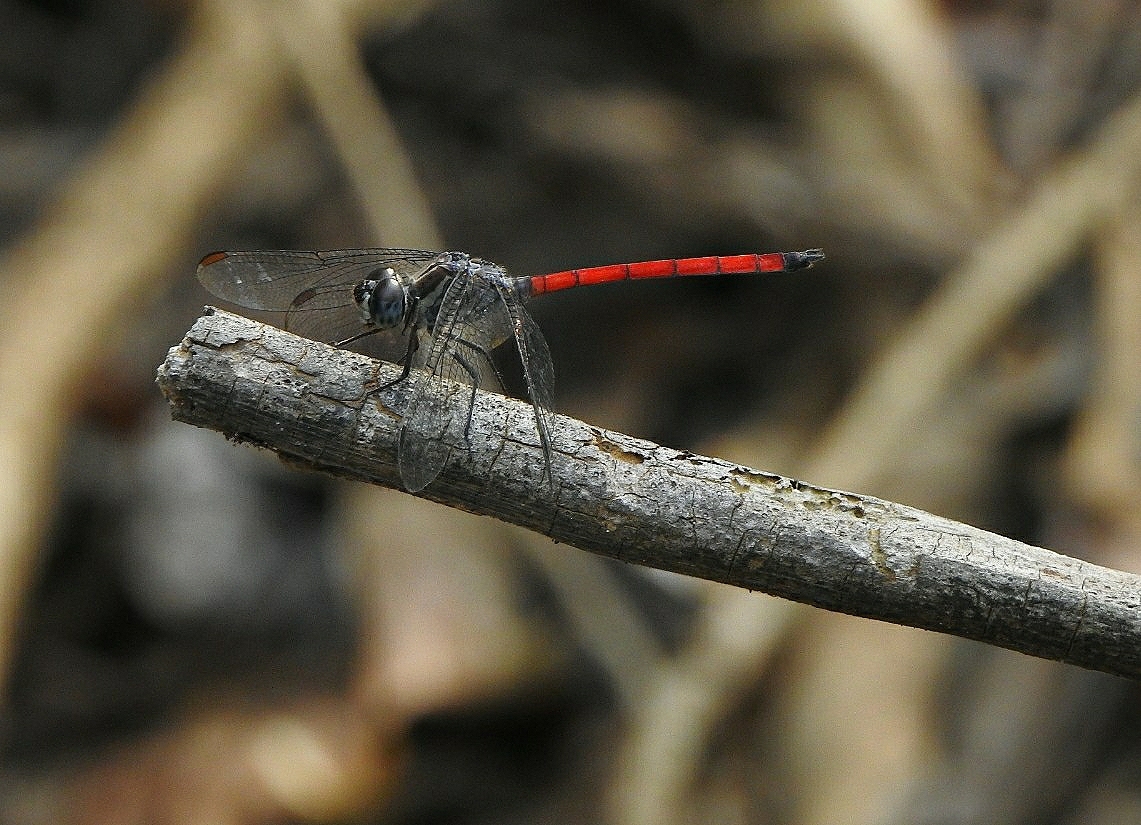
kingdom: Animalia
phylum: Arthropoda
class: Insecta
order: Odonata
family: Libellulidae
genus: Lathrecista
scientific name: Lathrecista asiatica
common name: Scarlet grenadier
